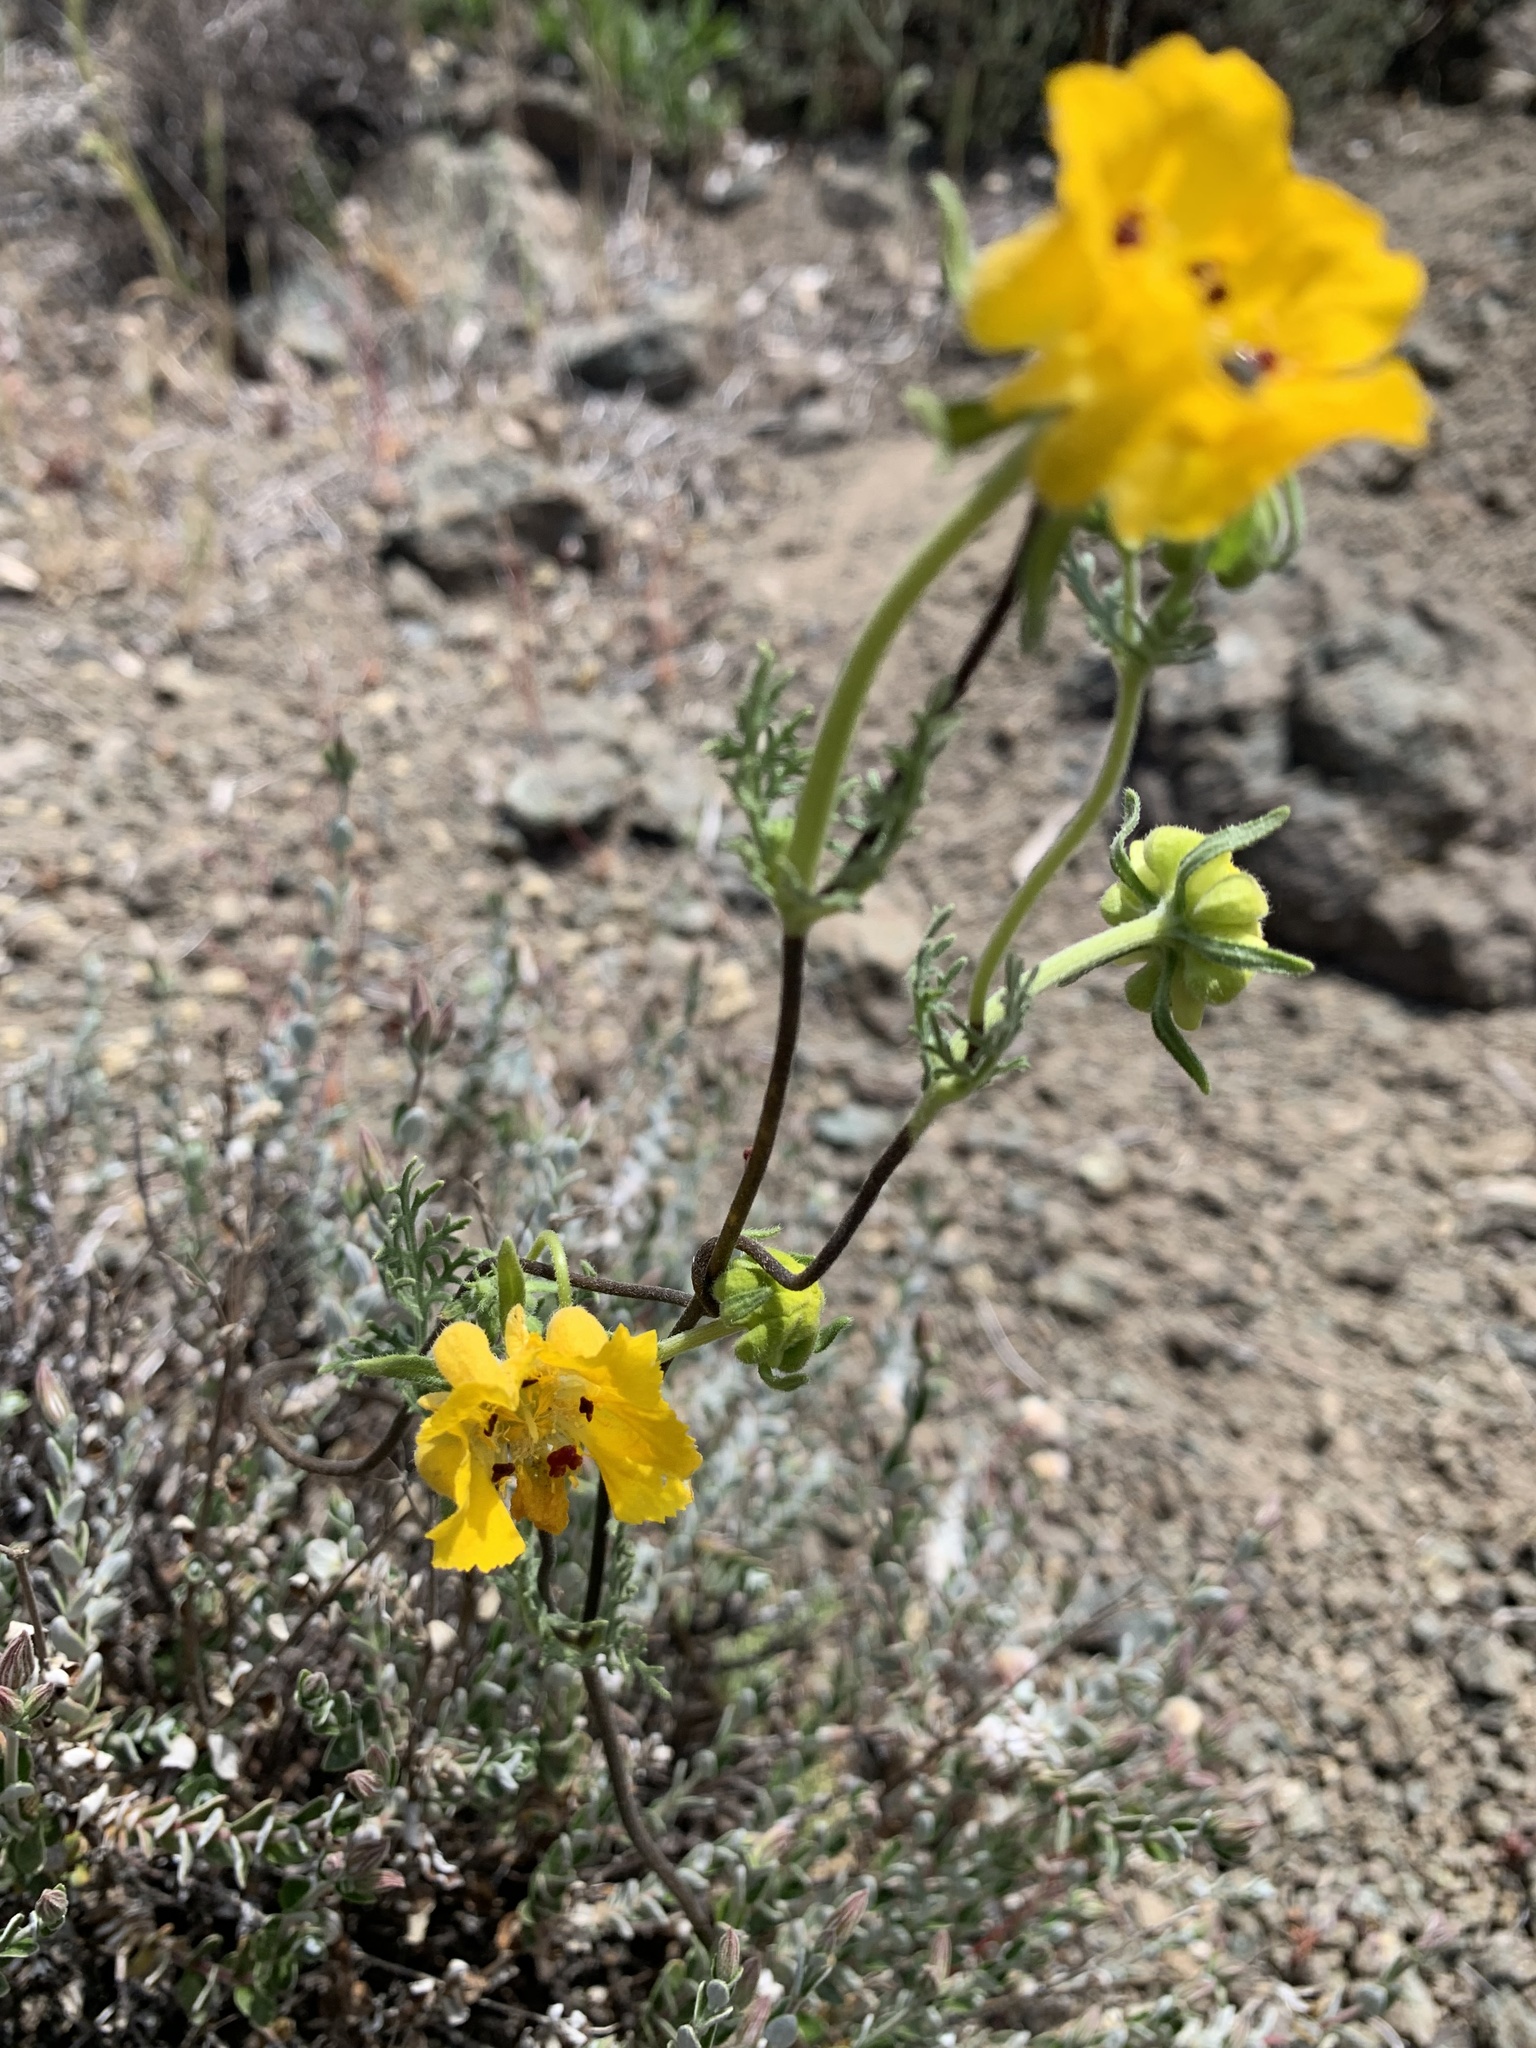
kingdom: Plantae
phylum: Tracheophyta
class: Magnoliopsida
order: Cornales
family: Loasaceae
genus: Scyphanthus
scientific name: Scyphanthus elegans
